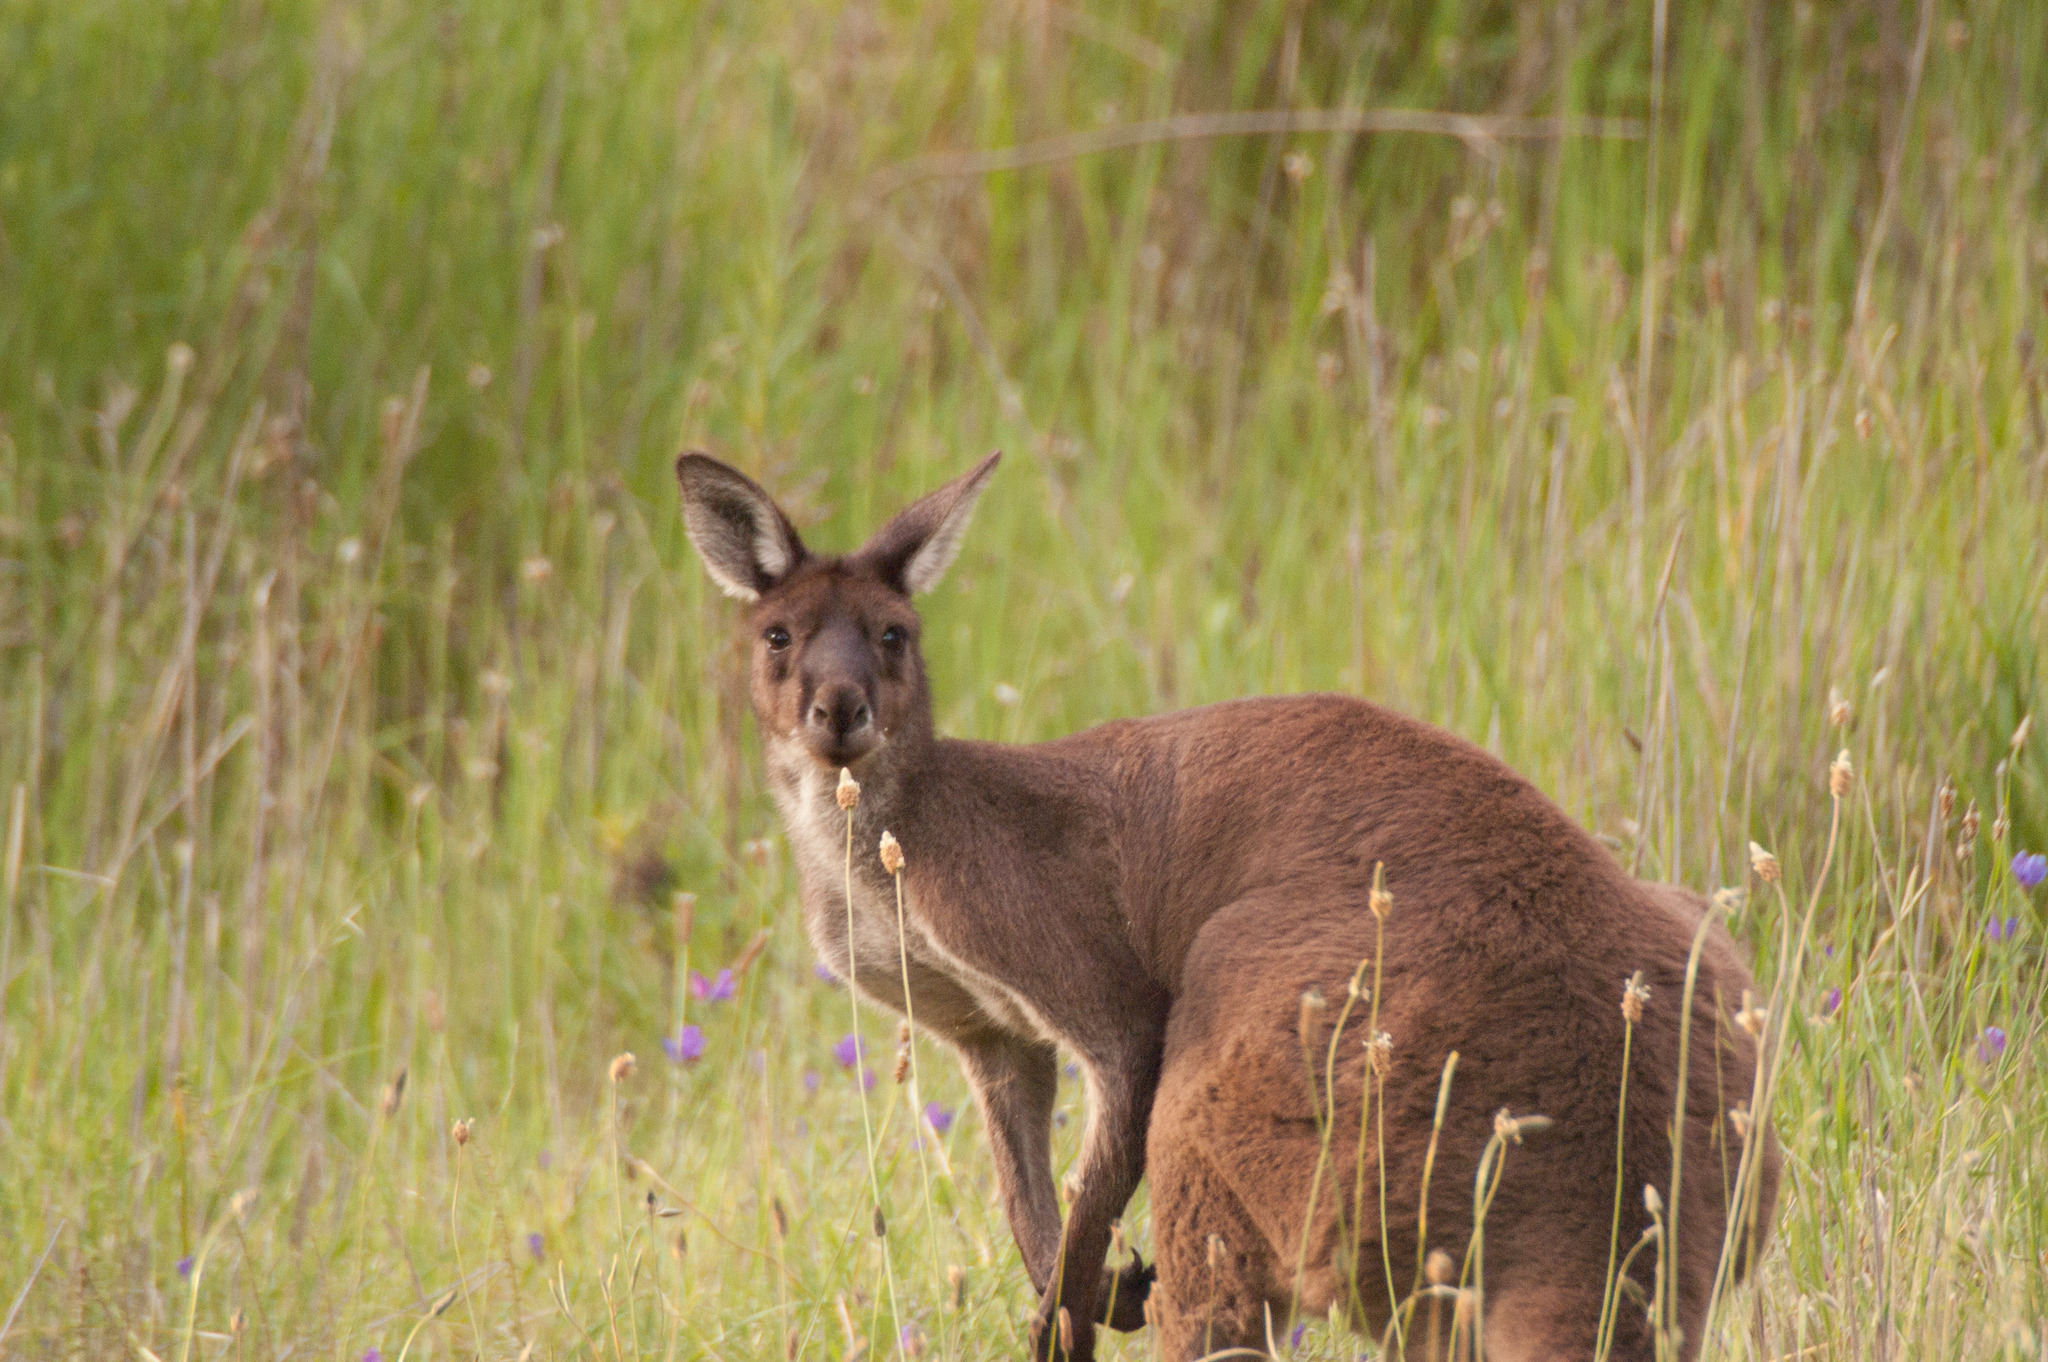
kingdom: Animalia
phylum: Chordata
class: Mammalia
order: Diprotodontia
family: Macropodidae
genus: Macropus
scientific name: Macropus fuliginosus
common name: Western grey kangaroo
